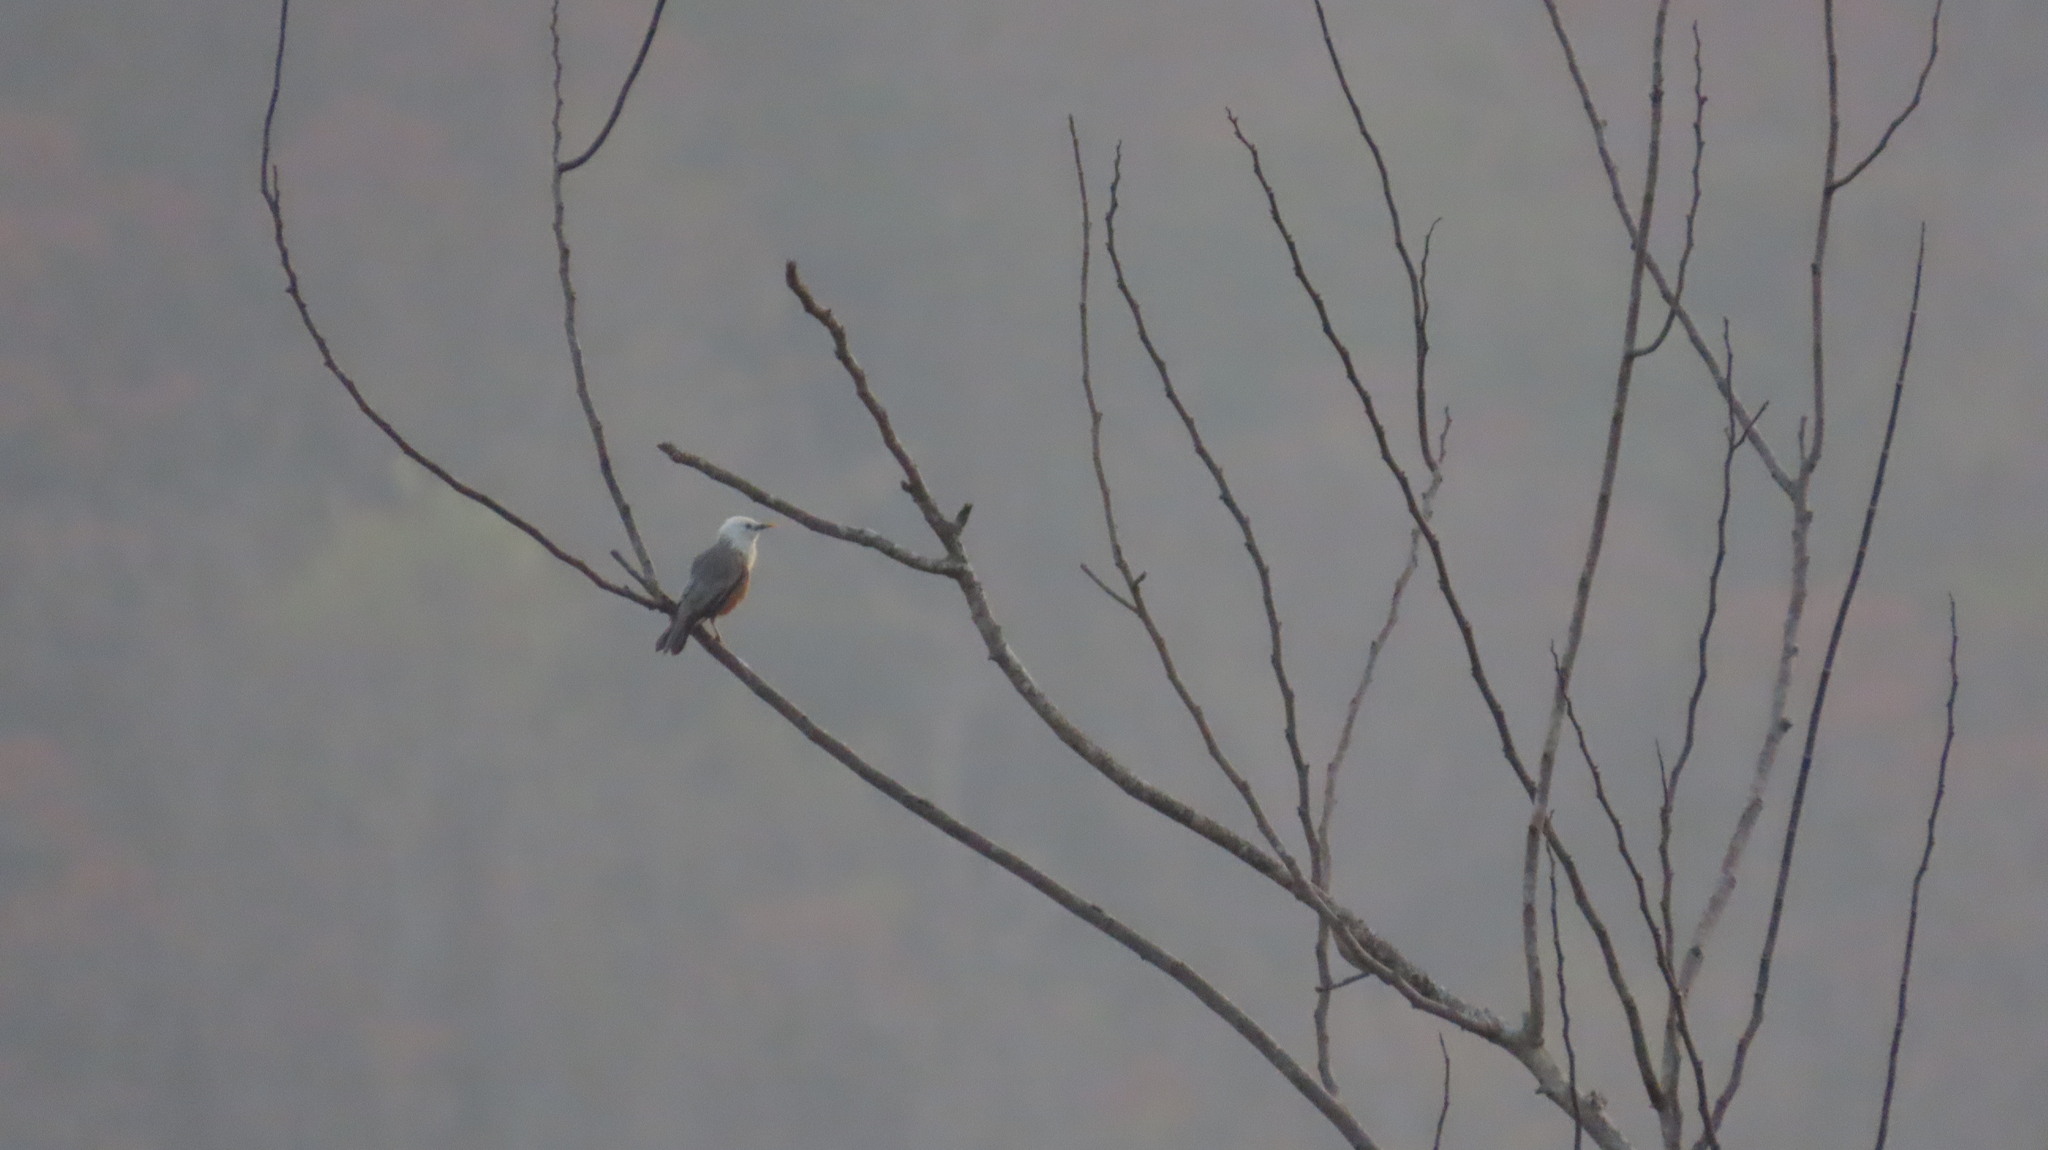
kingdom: Animalia
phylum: Chordata
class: Aves
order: Passeriformes
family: Sturnidae
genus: Sturnia
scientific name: Sturnia blythii
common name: Malabar starling
